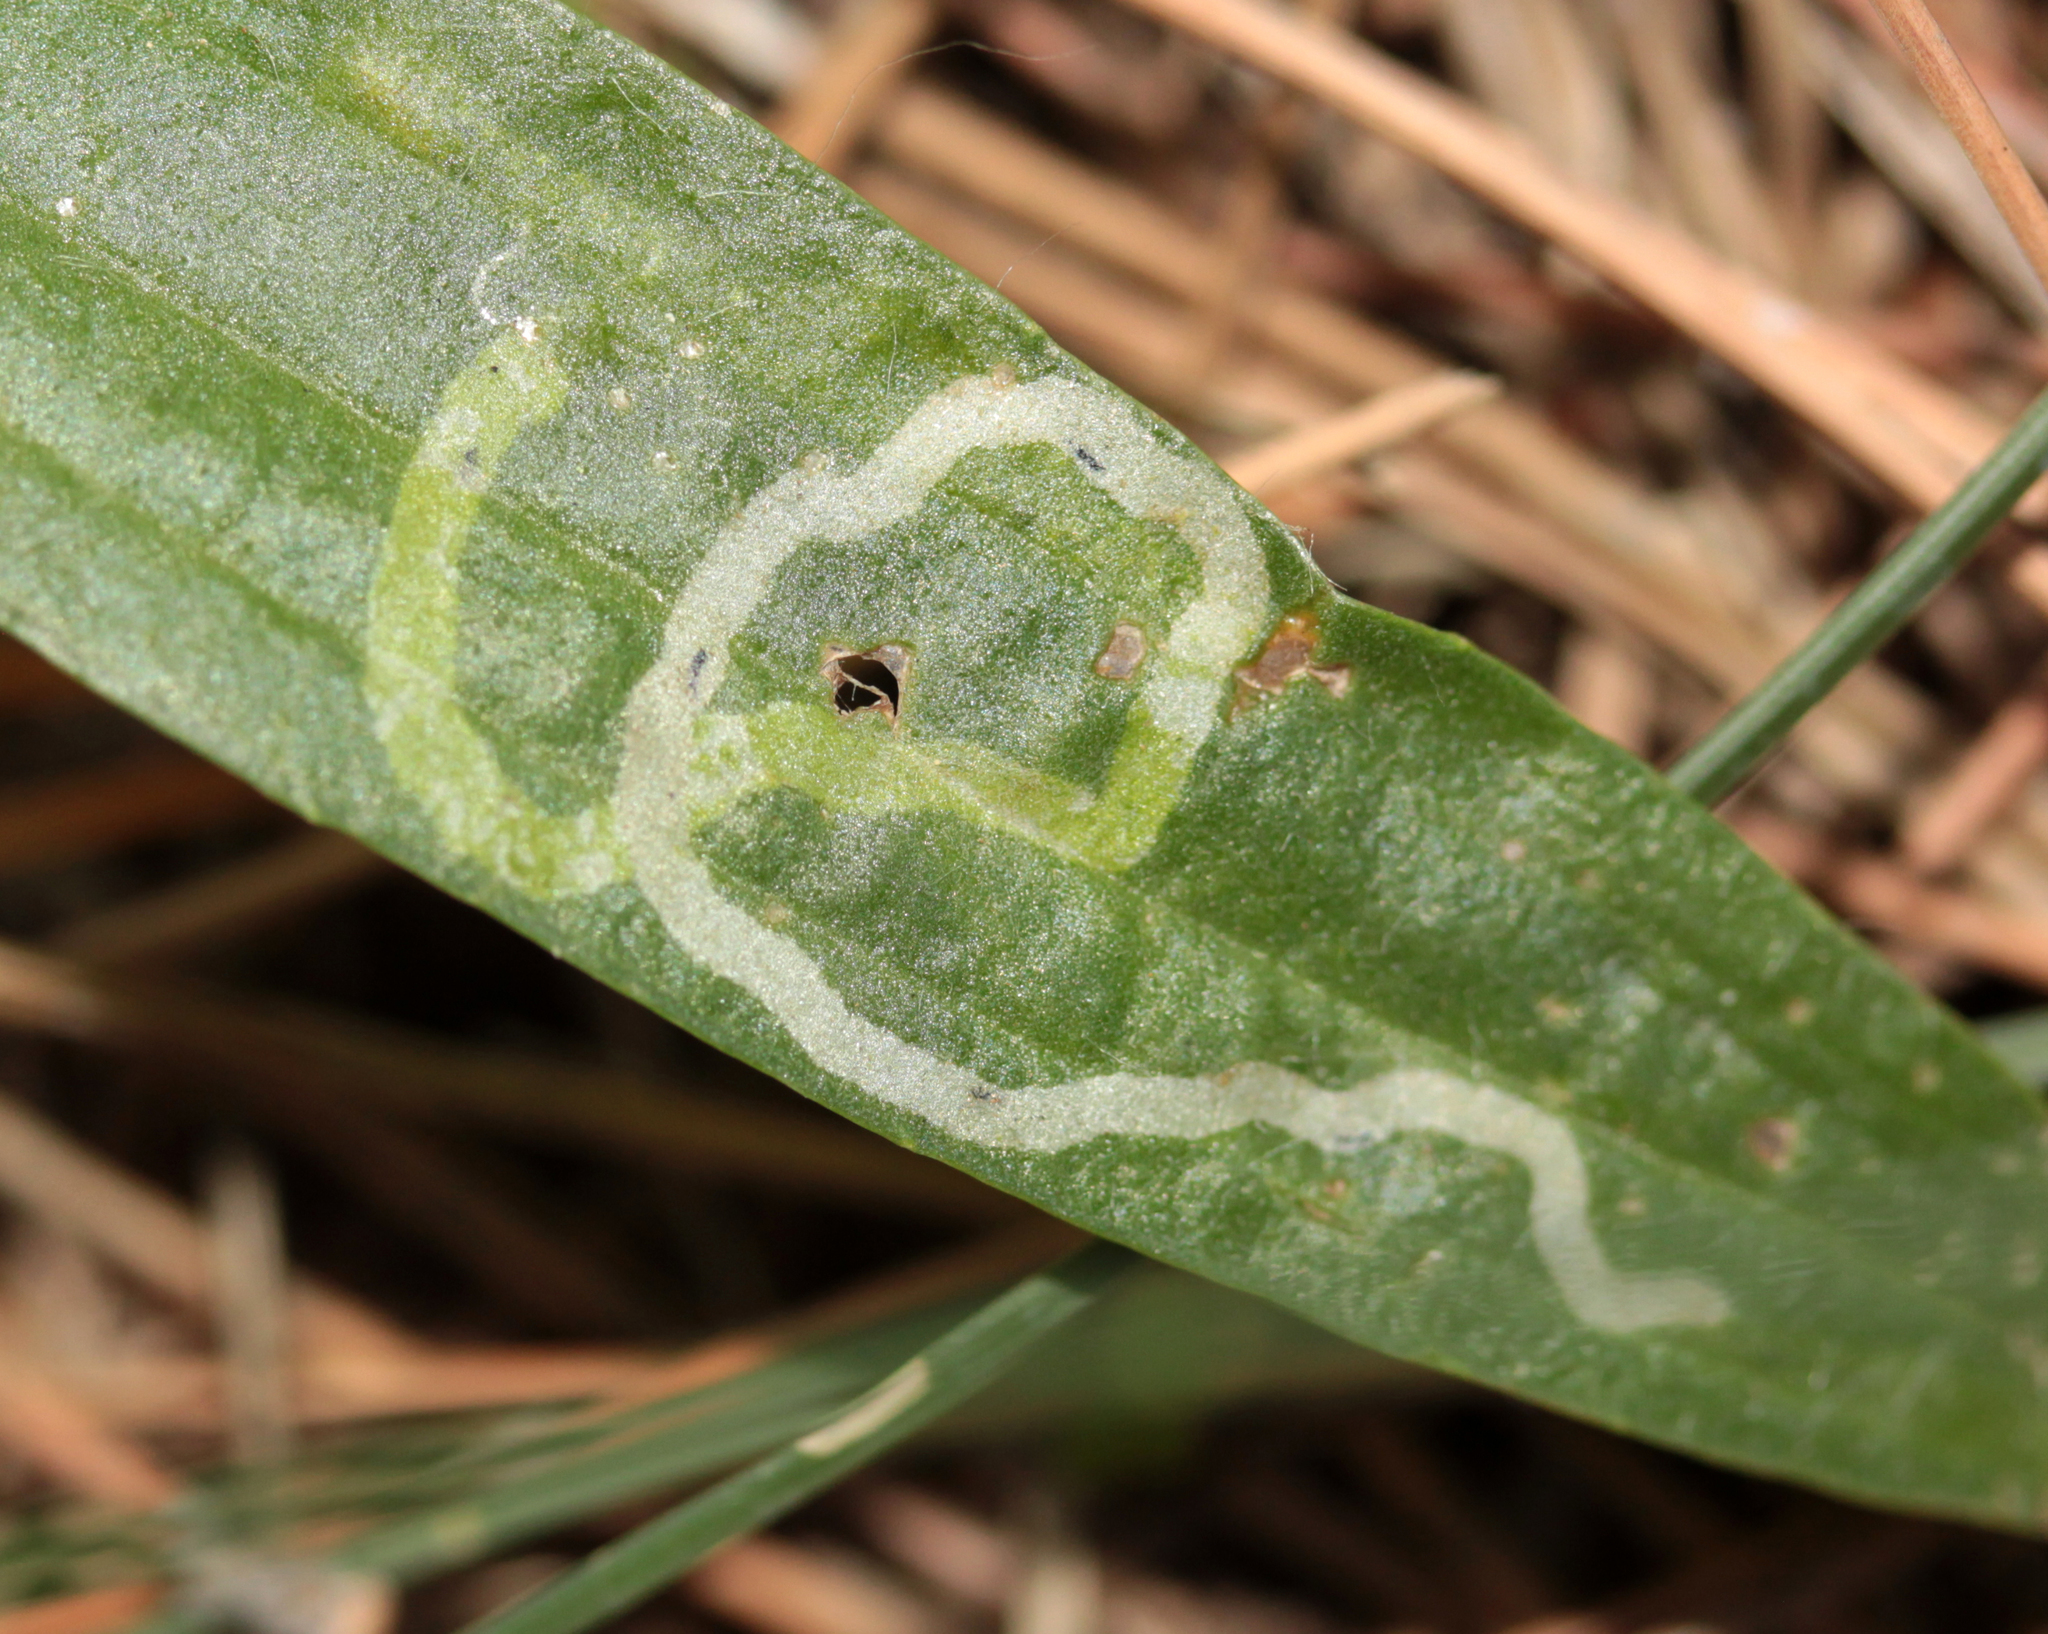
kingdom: Animalia
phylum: Arthropoda
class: Insecta
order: Diptera
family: Agromyzidae
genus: Phytomyza
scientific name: Phytomyza plantaginis
